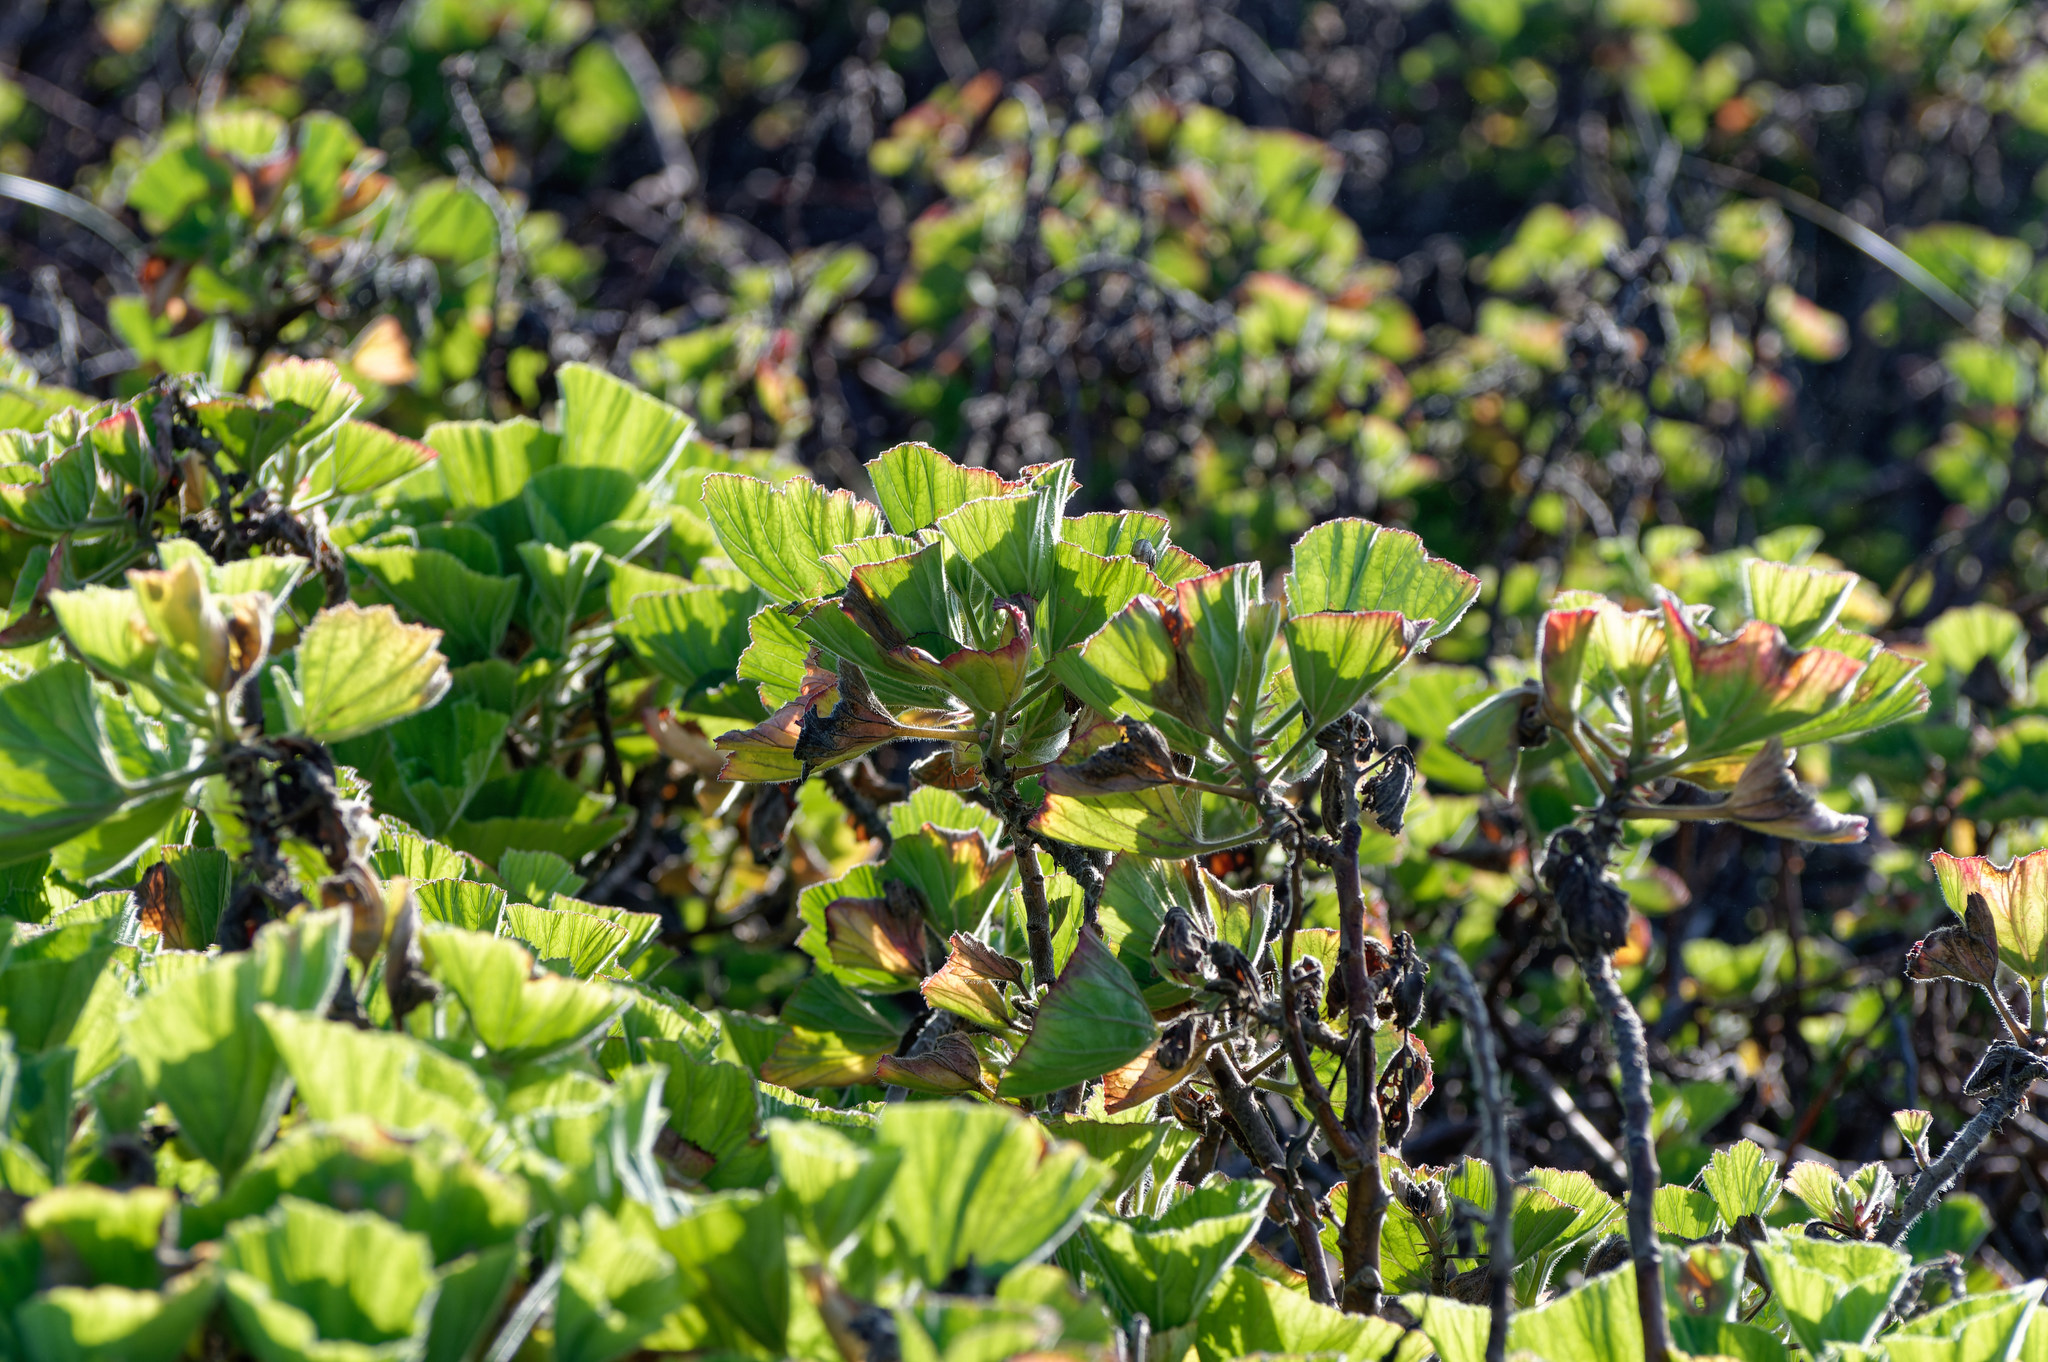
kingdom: Plantae
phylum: Tracheophyta
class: Magnoliopsida
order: Geraniales
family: Geraniaceae
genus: Pelargonium
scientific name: Pelargonium cucullatum
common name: Tree pelargonium
